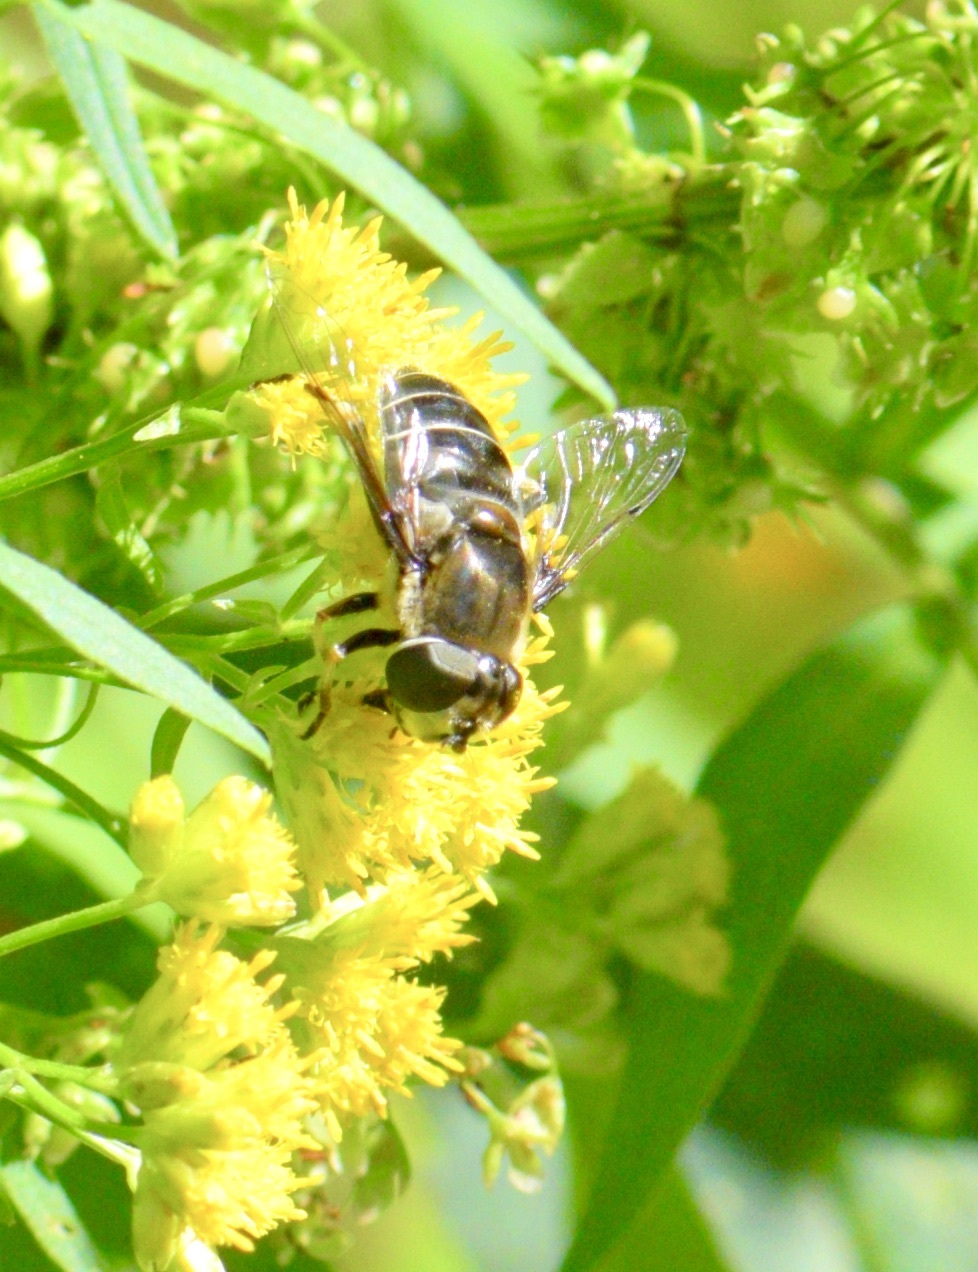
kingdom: Animalia
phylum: Arthropoda
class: Insecta
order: Diptera
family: Syrphidae
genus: Eristalis
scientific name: Eristalis dimidiata
